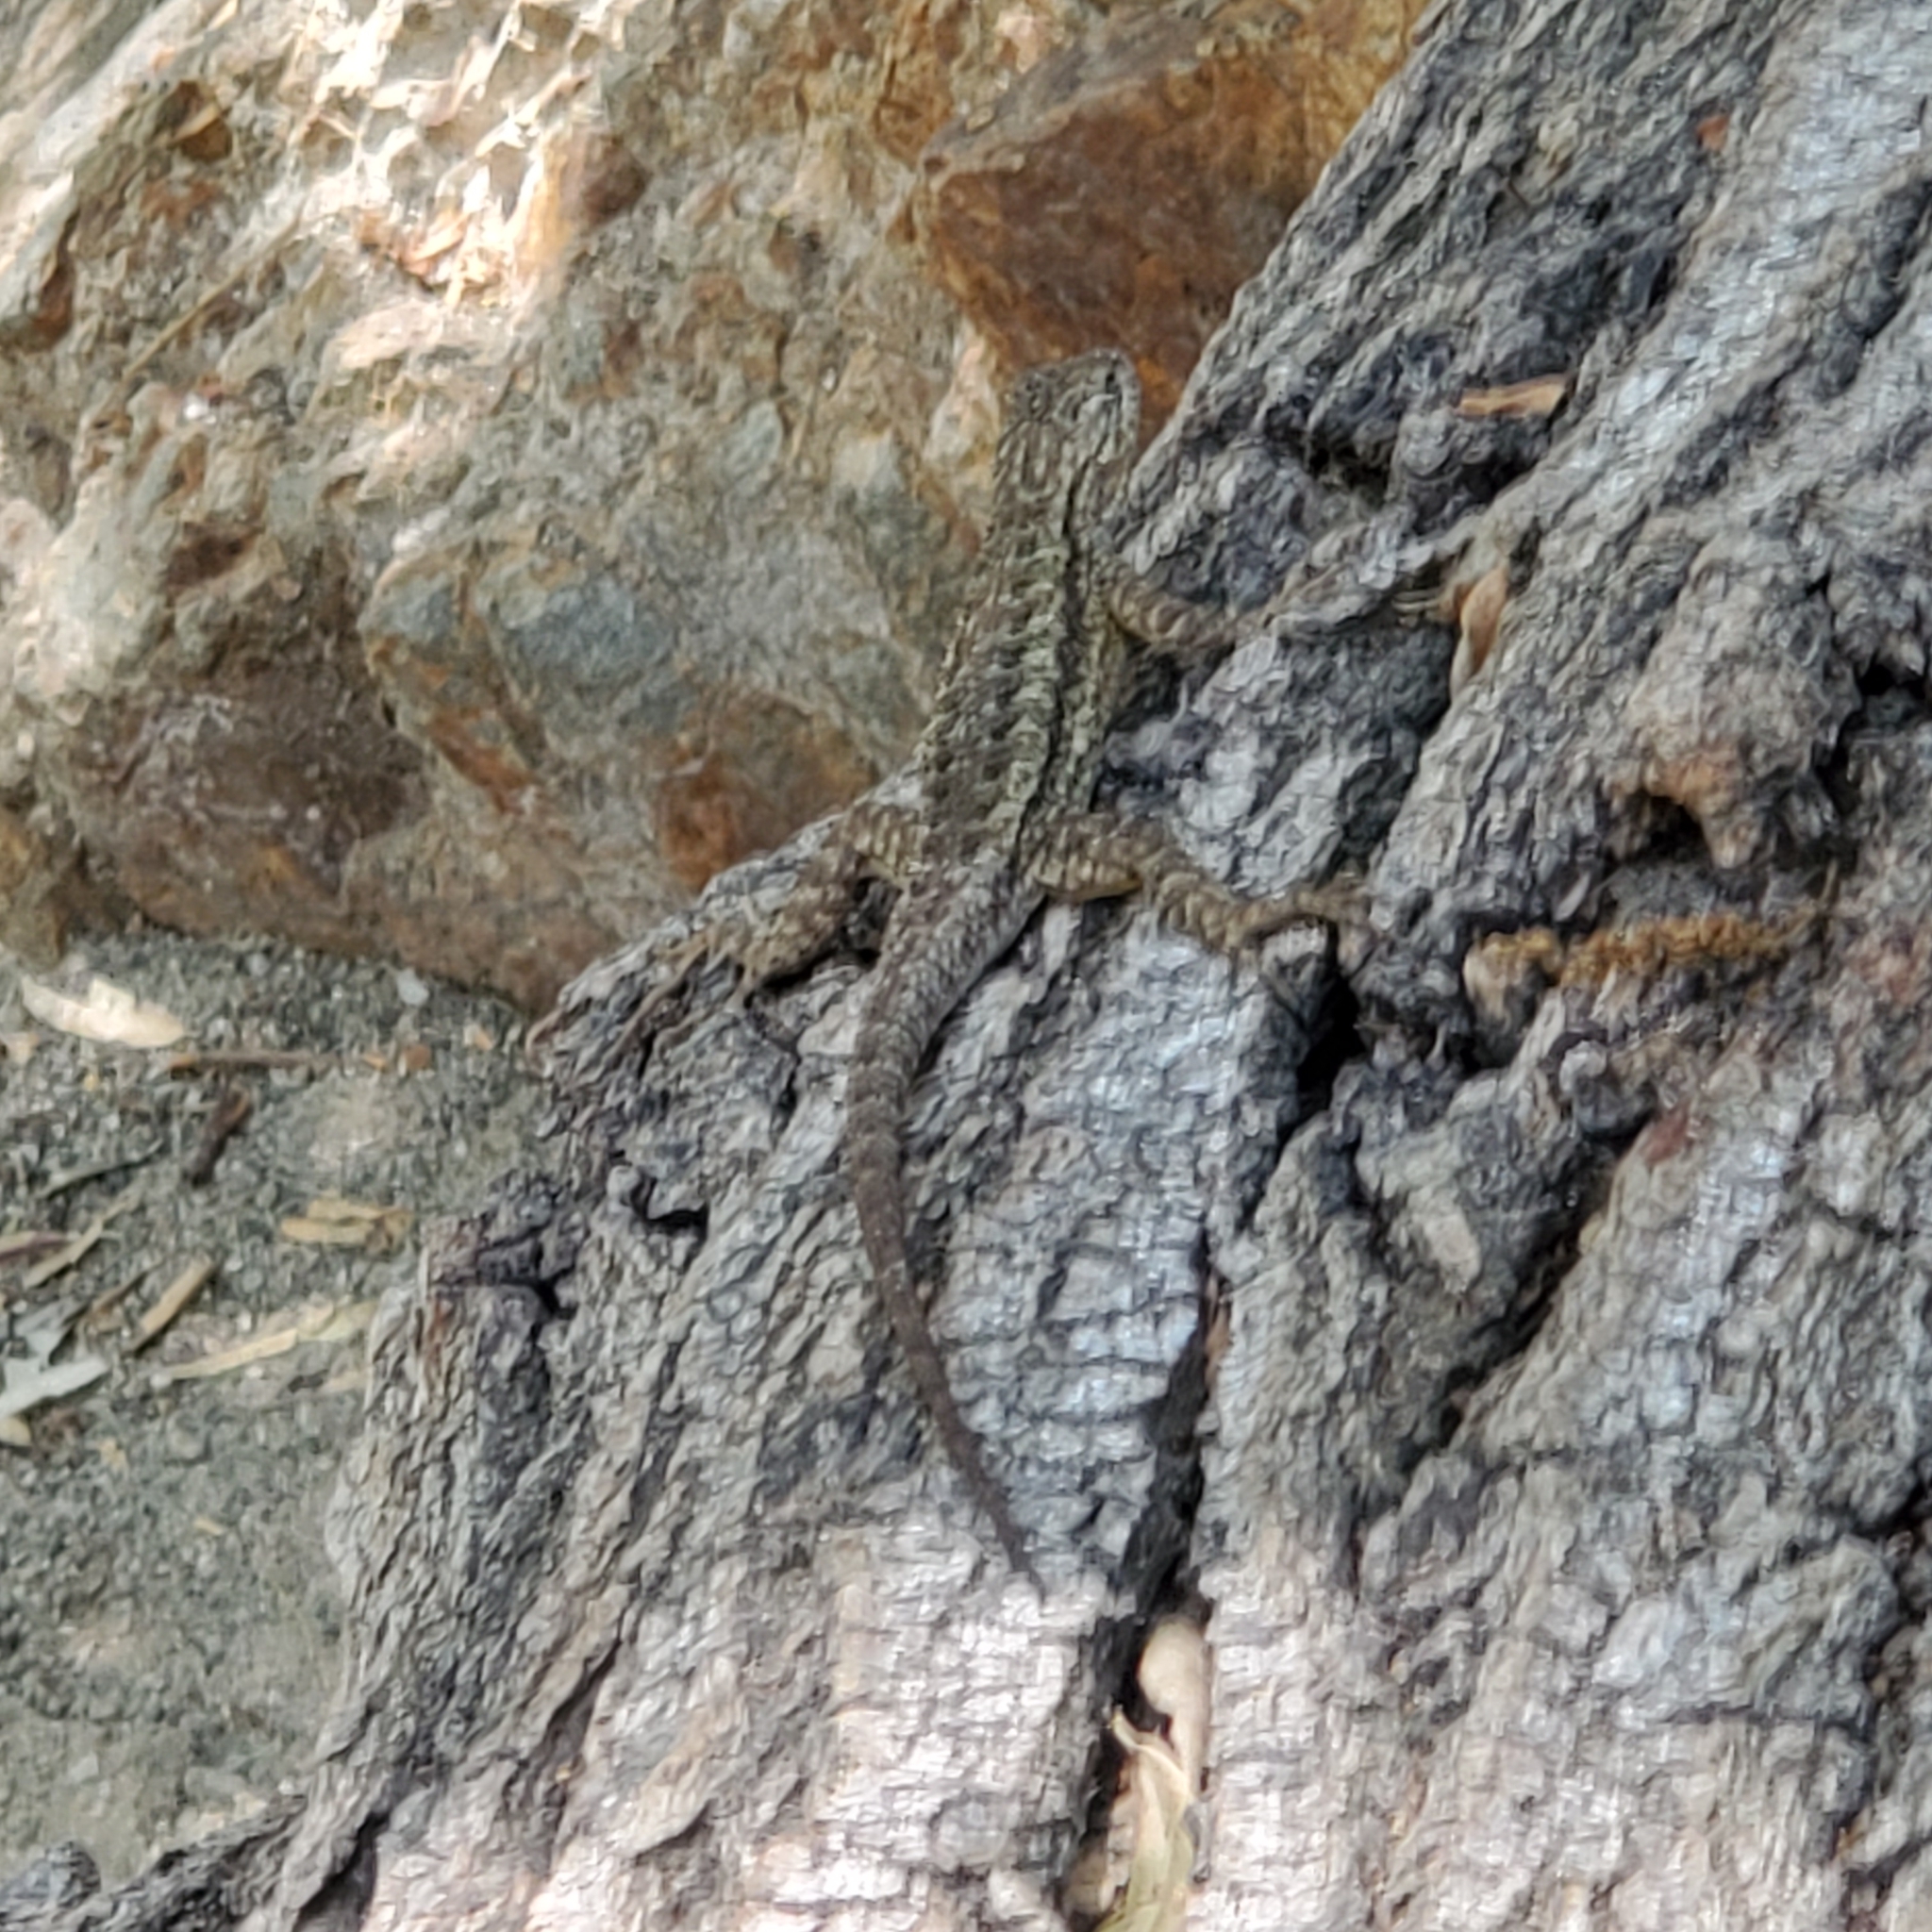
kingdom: Animalia
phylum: Chordata
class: Squamata
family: Phrynosomatidae
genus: Sceloporus
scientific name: Sceloporus occidentalis
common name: Western fence lizard
